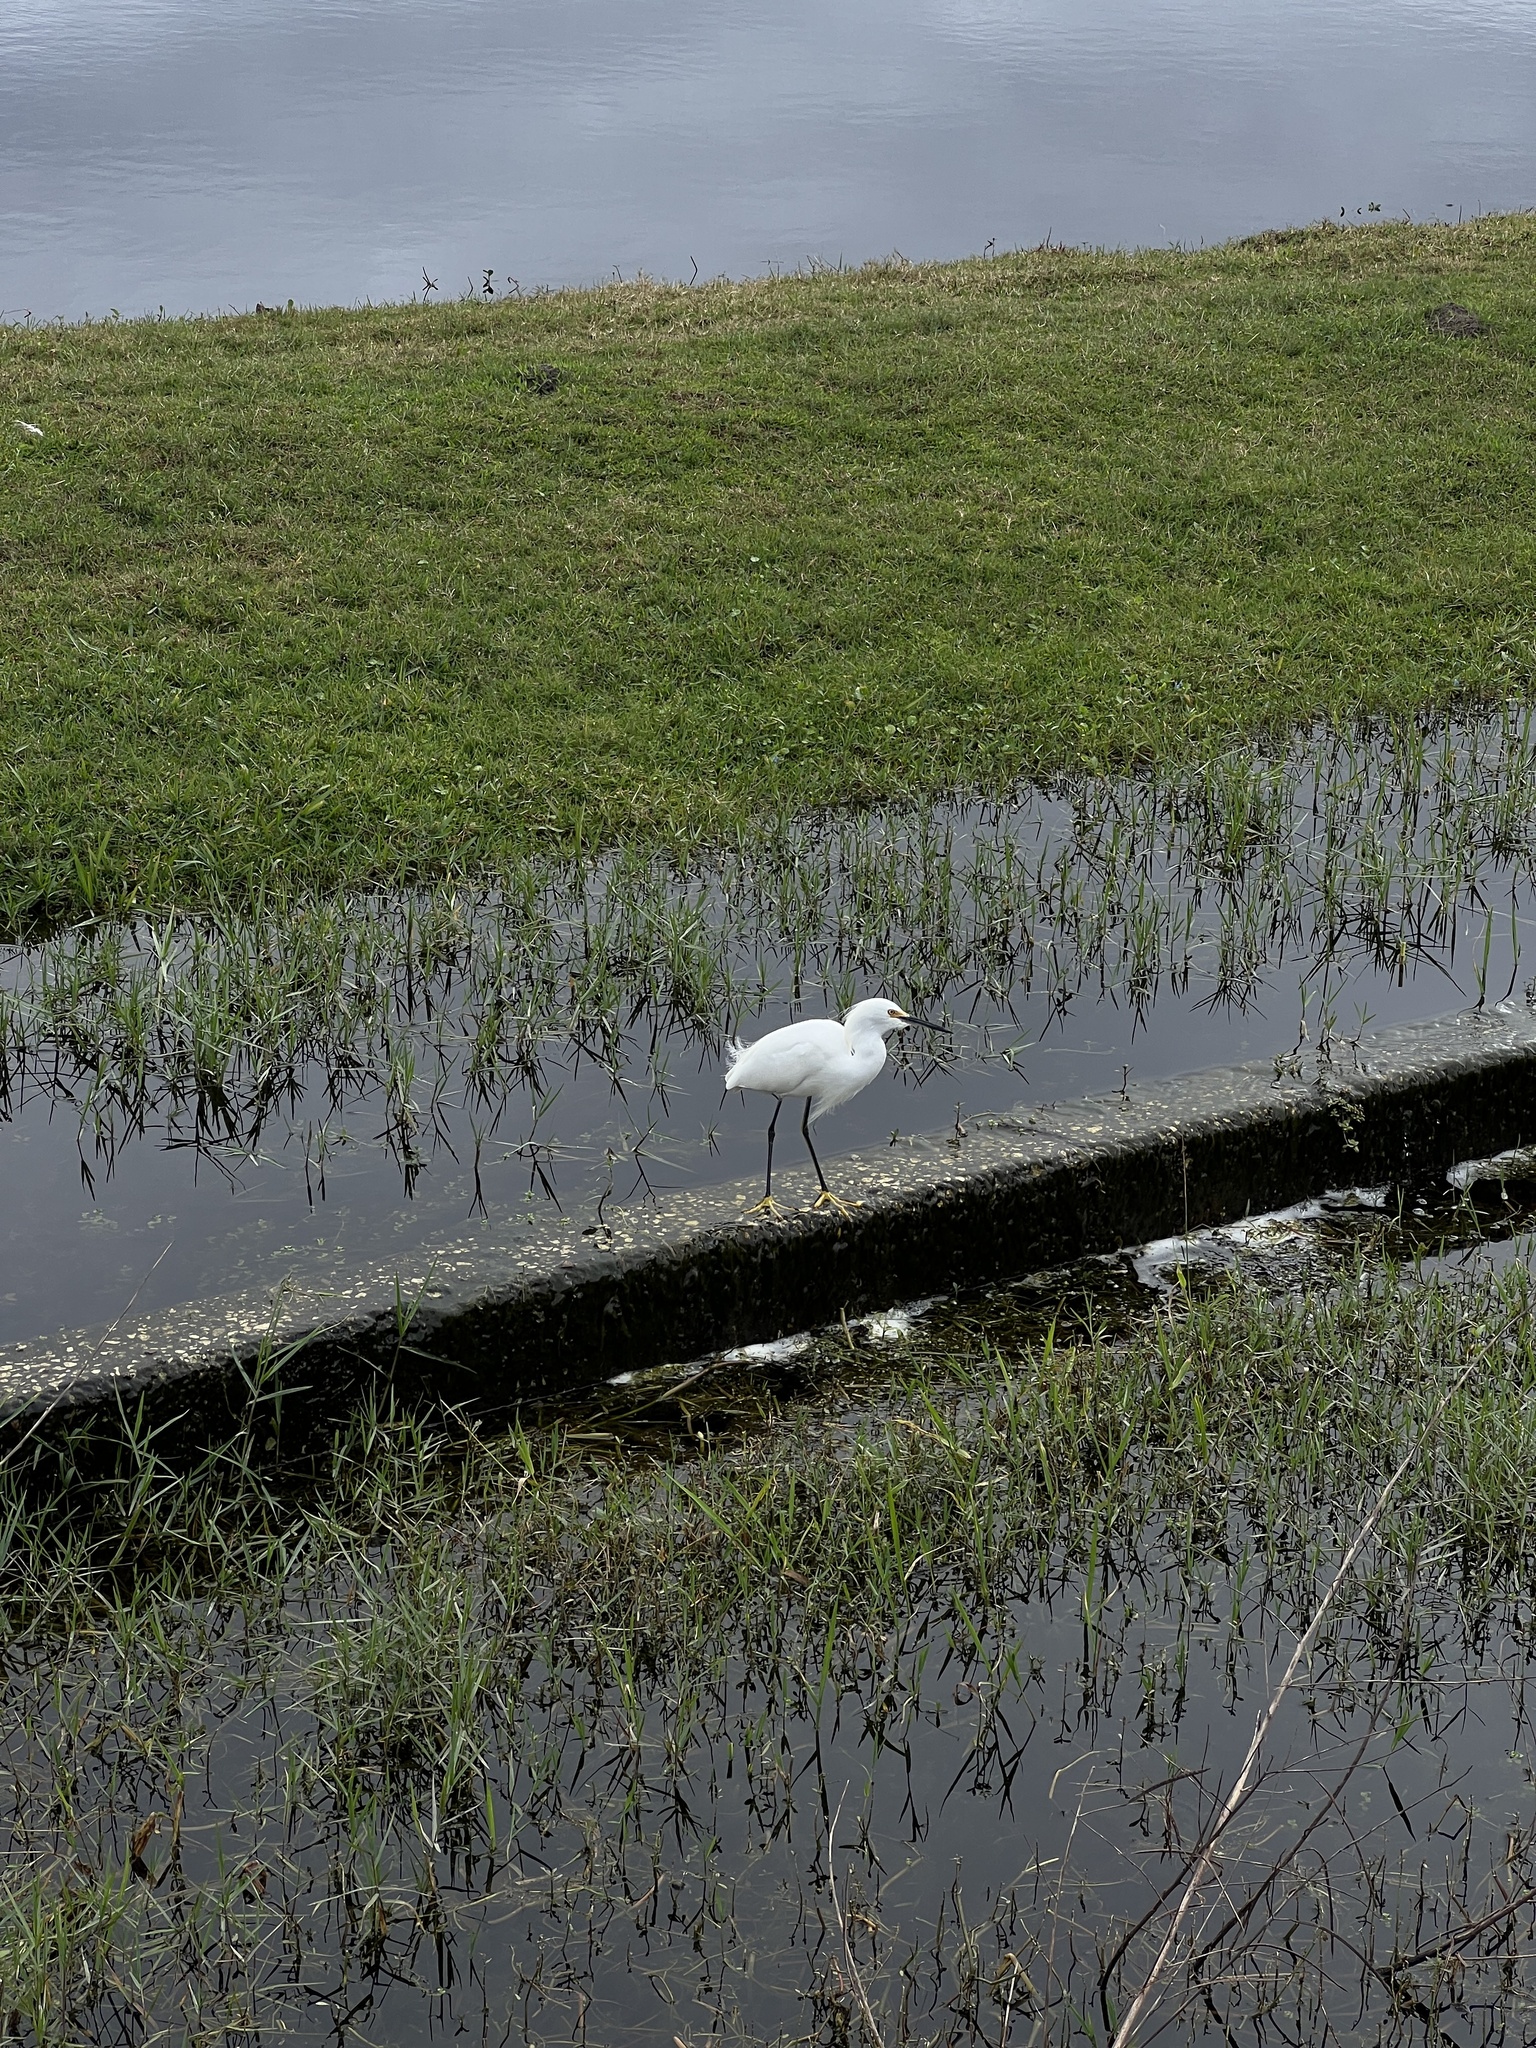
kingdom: Animalia
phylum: Chordata
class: Aves
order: Pelecaniformes
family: Ardeidae
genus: Egretta
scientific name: Egretta thula
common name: Snowy egret
